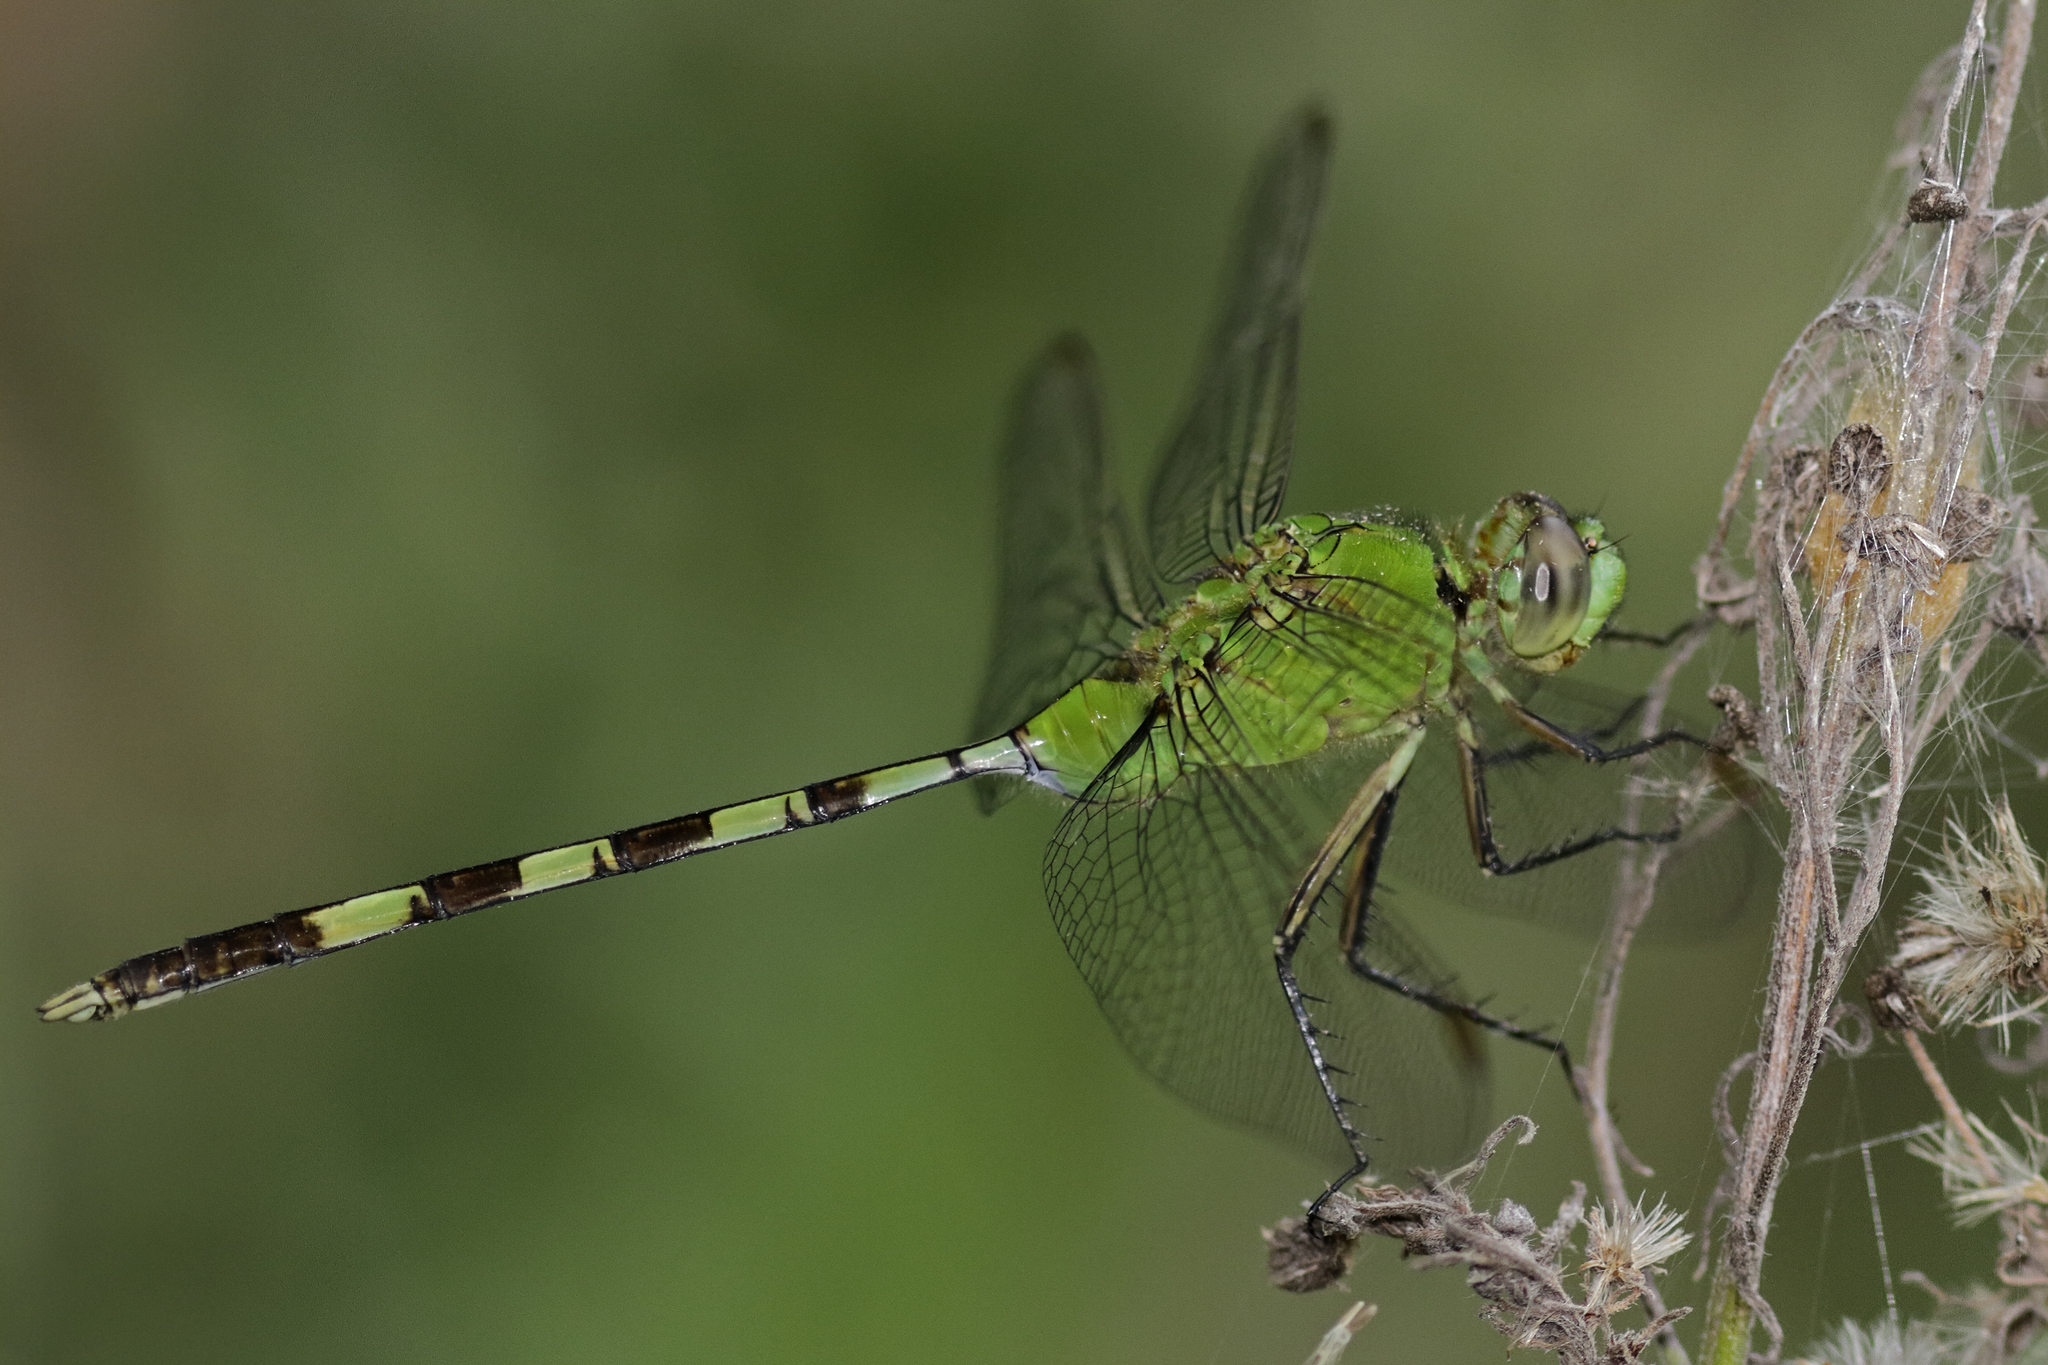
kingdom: Animalia
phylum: Arthropoda
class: Insecta
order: Odonata
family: Libellulidae
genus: Erythemis
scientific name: Erythemis vesiculosa
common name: Great pondhawk
